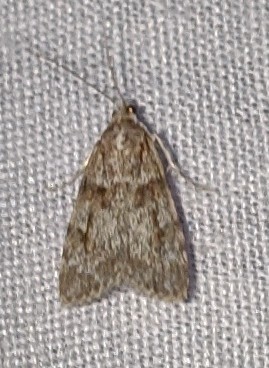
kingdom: Animalia
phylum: Arthropoda
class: Insecta
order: Lepidoptera
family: Crambidae
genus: Scoparia
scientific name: Scoparia biplagialis
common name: Double-striped scoparia moth
